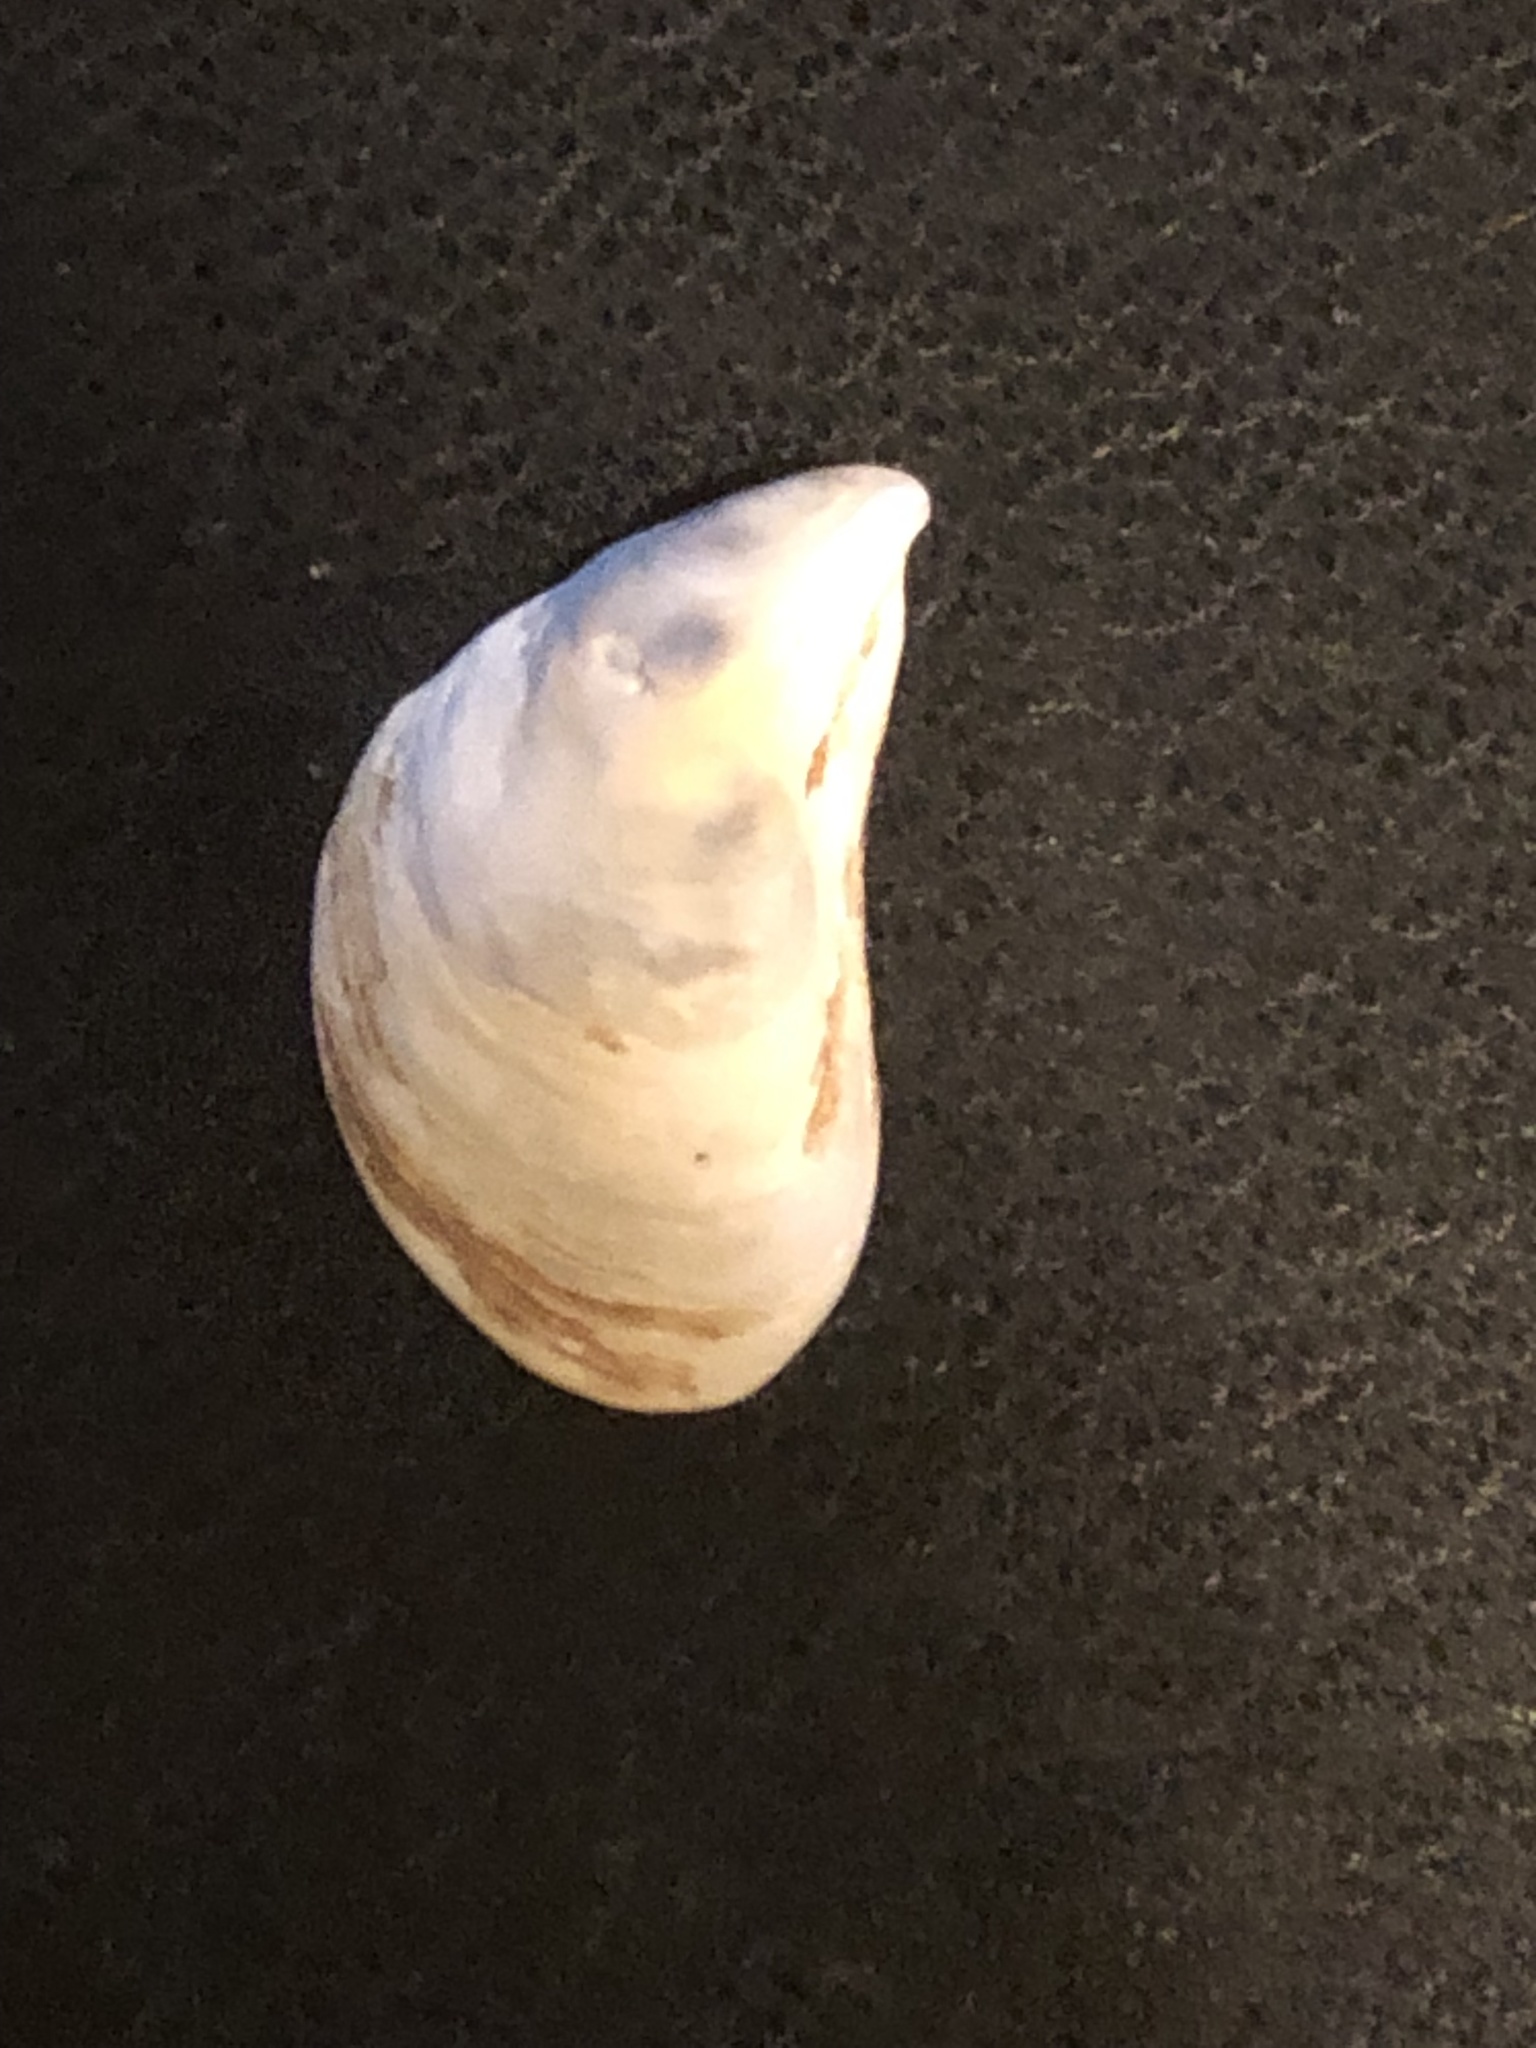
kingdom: Animalia
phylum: Mollusca
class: Bivalvia
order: Myida
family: Dreissenidae
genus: Dreissena
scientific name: Dreissena bugensis
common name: Quagga mussel
